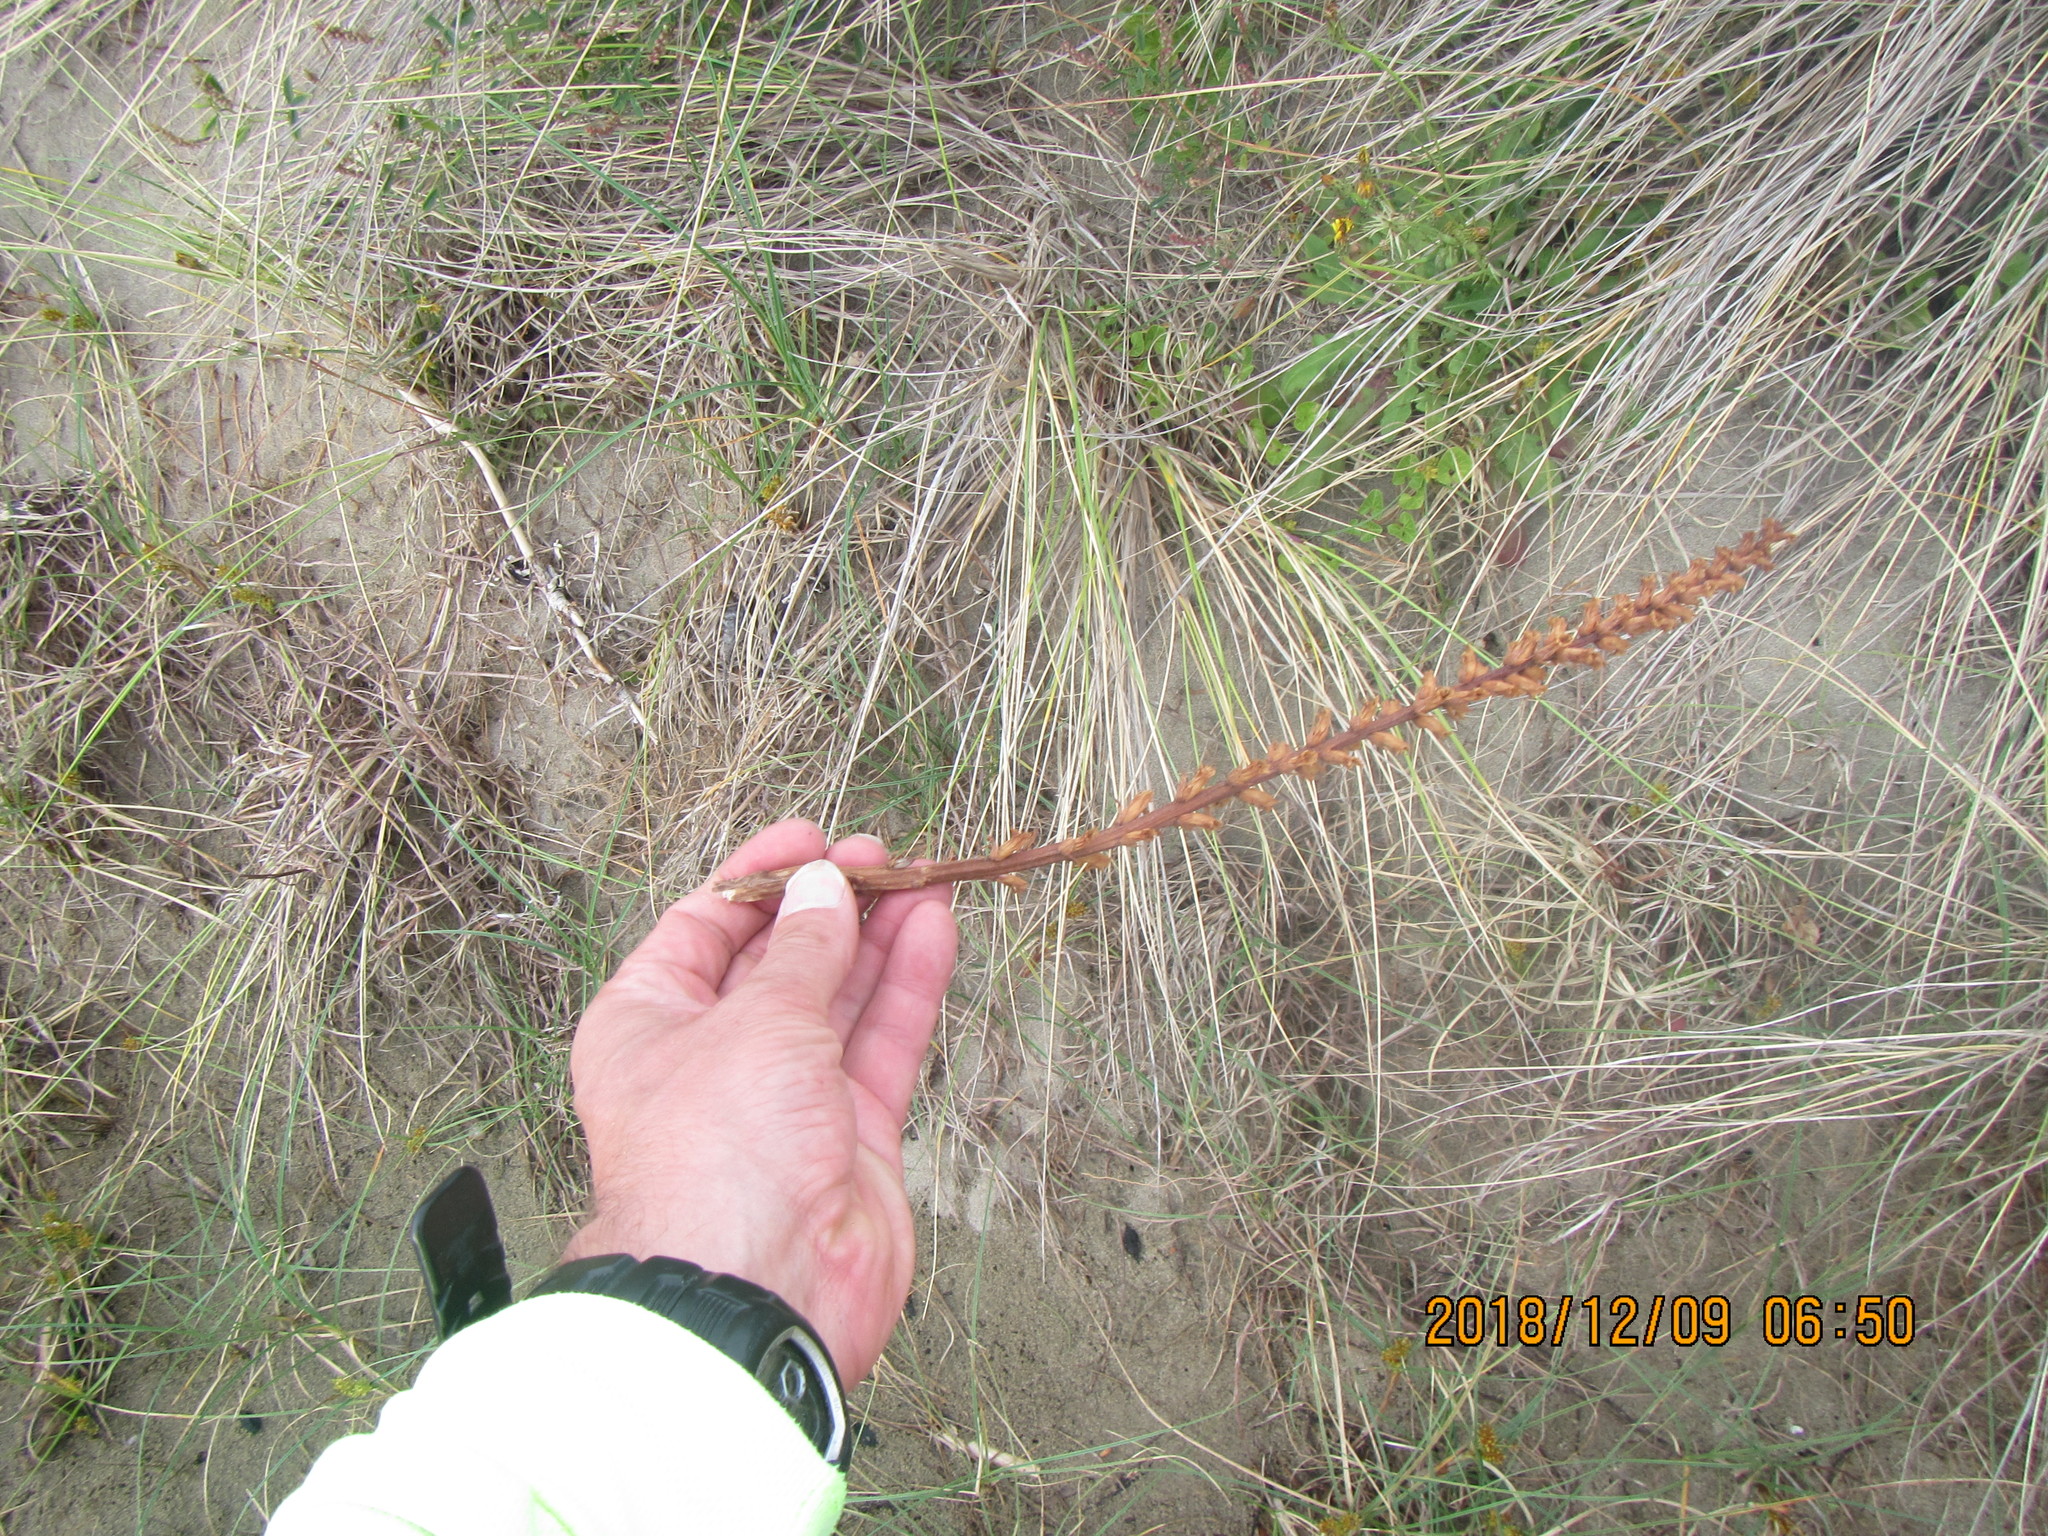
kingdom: Plantae
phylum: Tracheophyta
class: Magnoliopsida
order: Lamiales
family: Orobanchaceae
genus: Orobanche
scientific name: Orobanche minor
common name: Common broomrape
